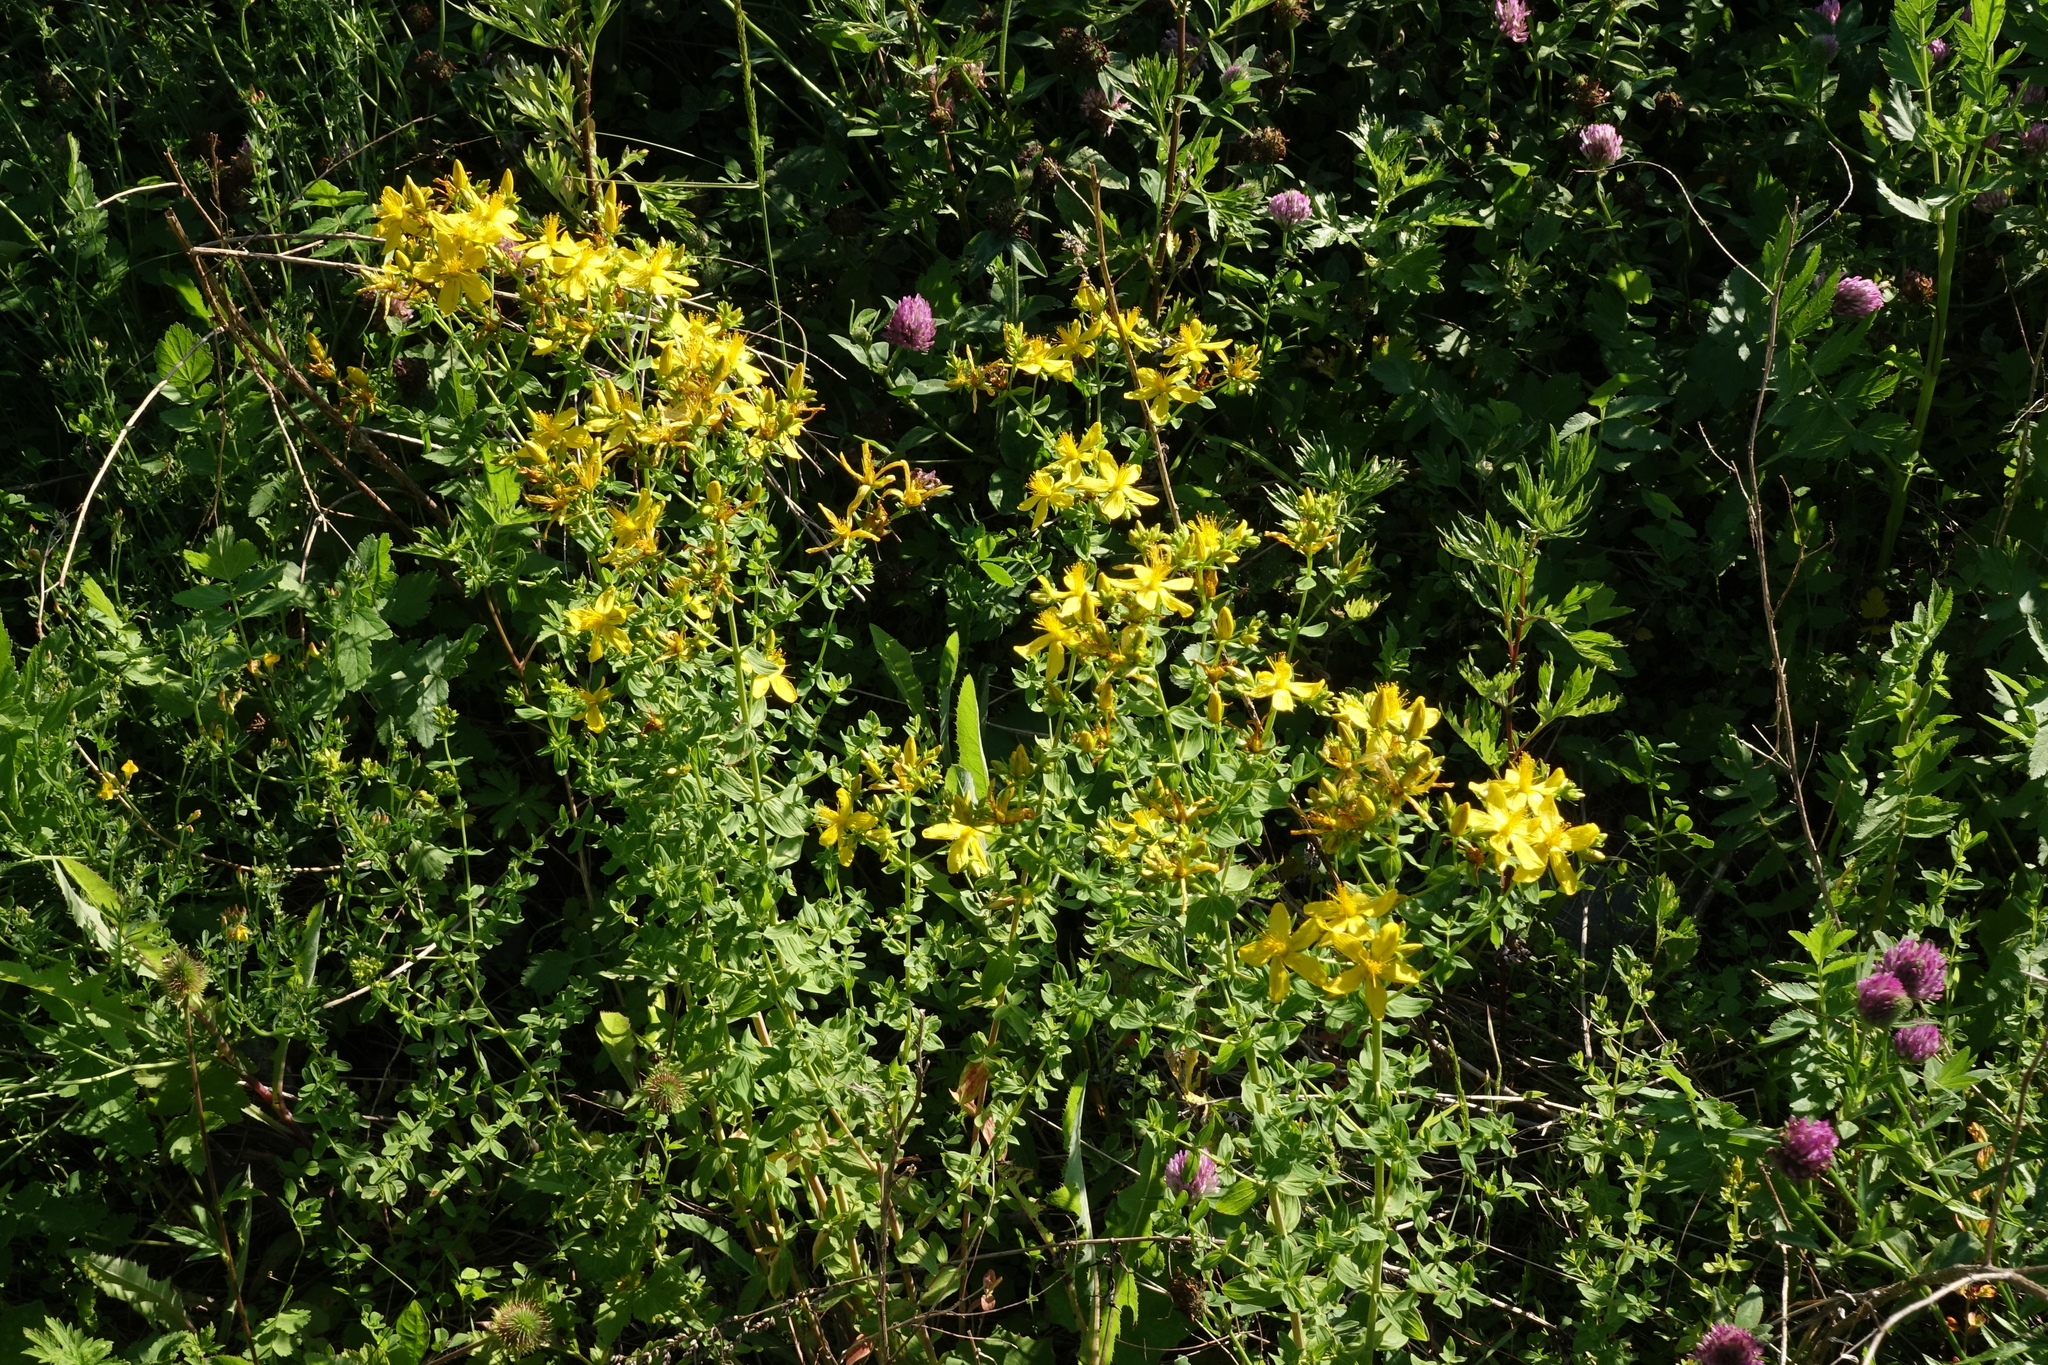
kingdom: Plantae
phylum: Tracheophyta
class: Magnoliopsida
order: Malpighiales
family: Hypericaceae
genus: Hypericum
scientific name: Hypericum perforatum
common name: Common st. johnswort
